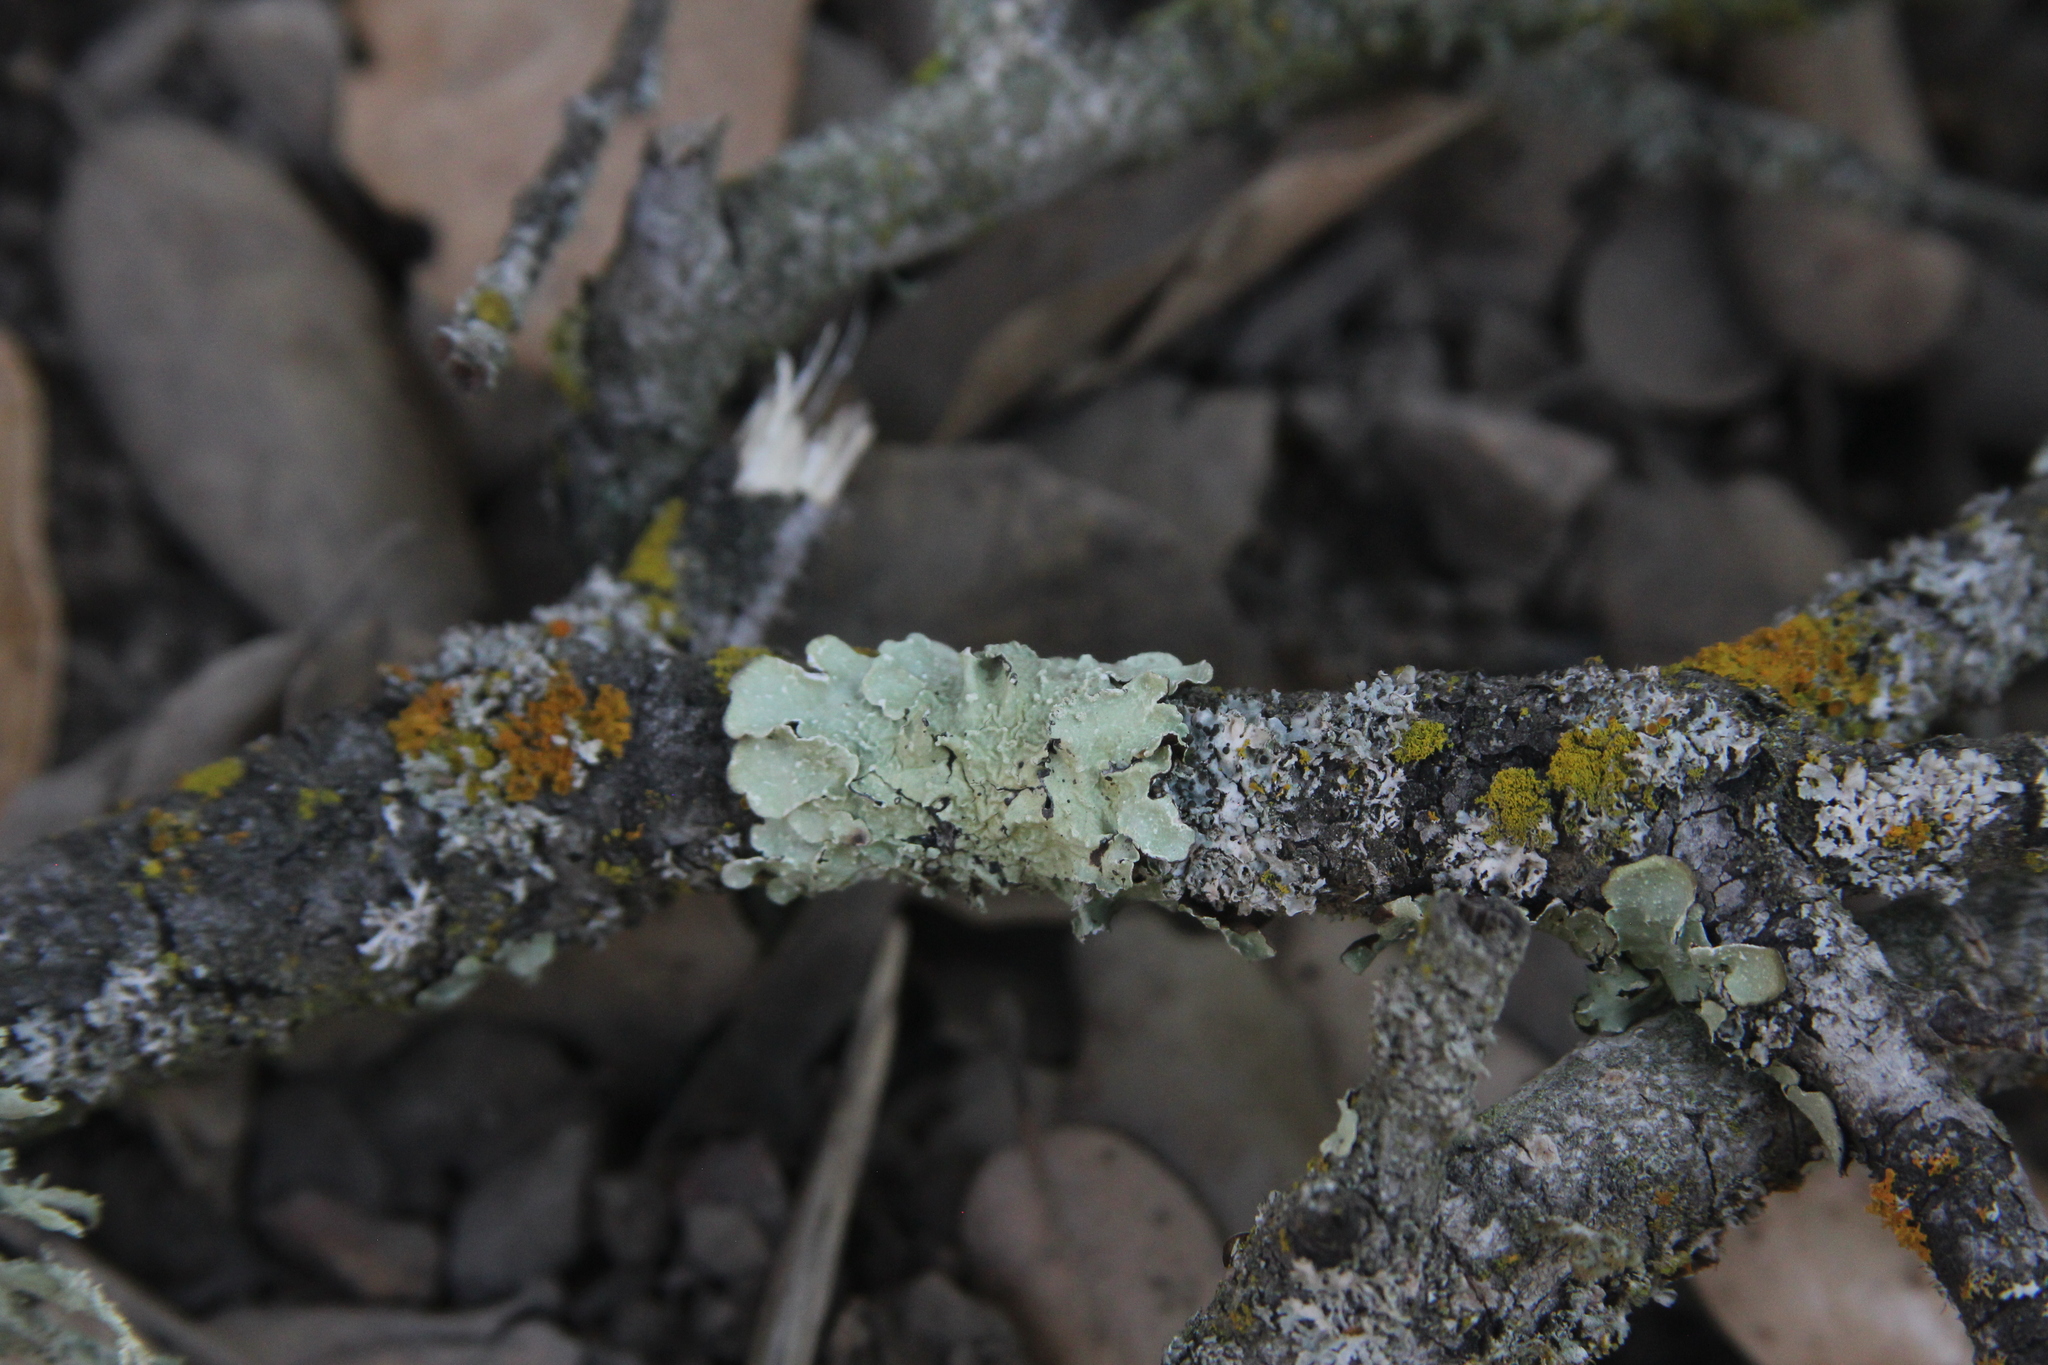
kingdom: Fungi
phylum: Ascomycota
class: Lecanoromycetes
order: Lecanorales
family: Parmeliaceae
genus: Flavopunctelia
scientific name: Flavopunctelia flaventior
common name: Speckled greenshield
